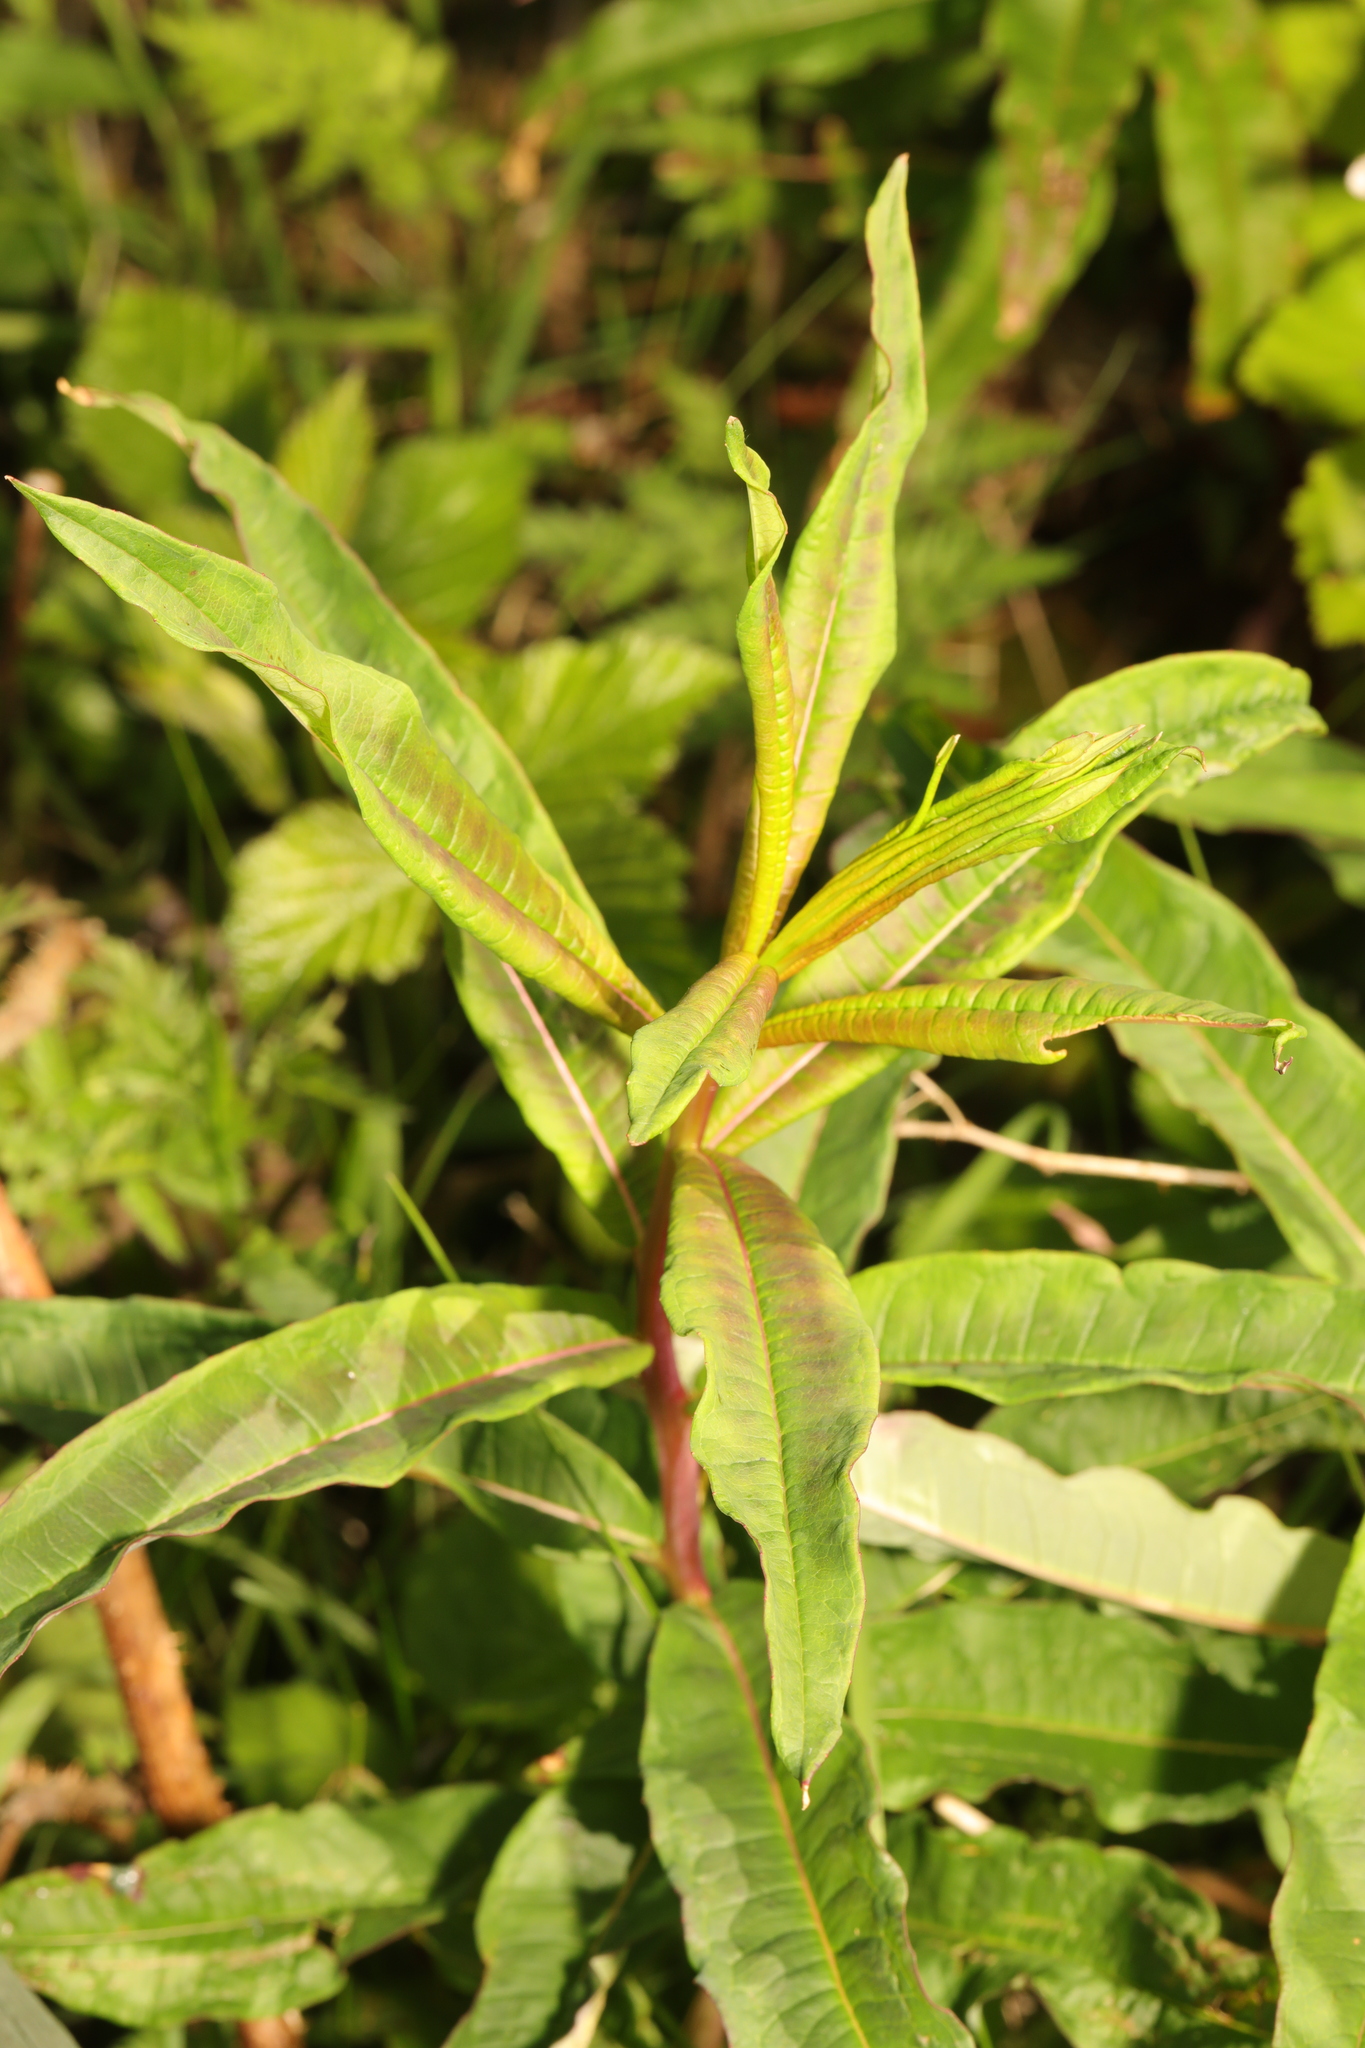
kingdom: Plantae
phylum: Tracheophyta
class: Magnoliopsida
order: Myrtales
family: Onagraceae
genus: Chamaenerion
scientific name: Chamaenerion angustifolium
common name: Fireweed
